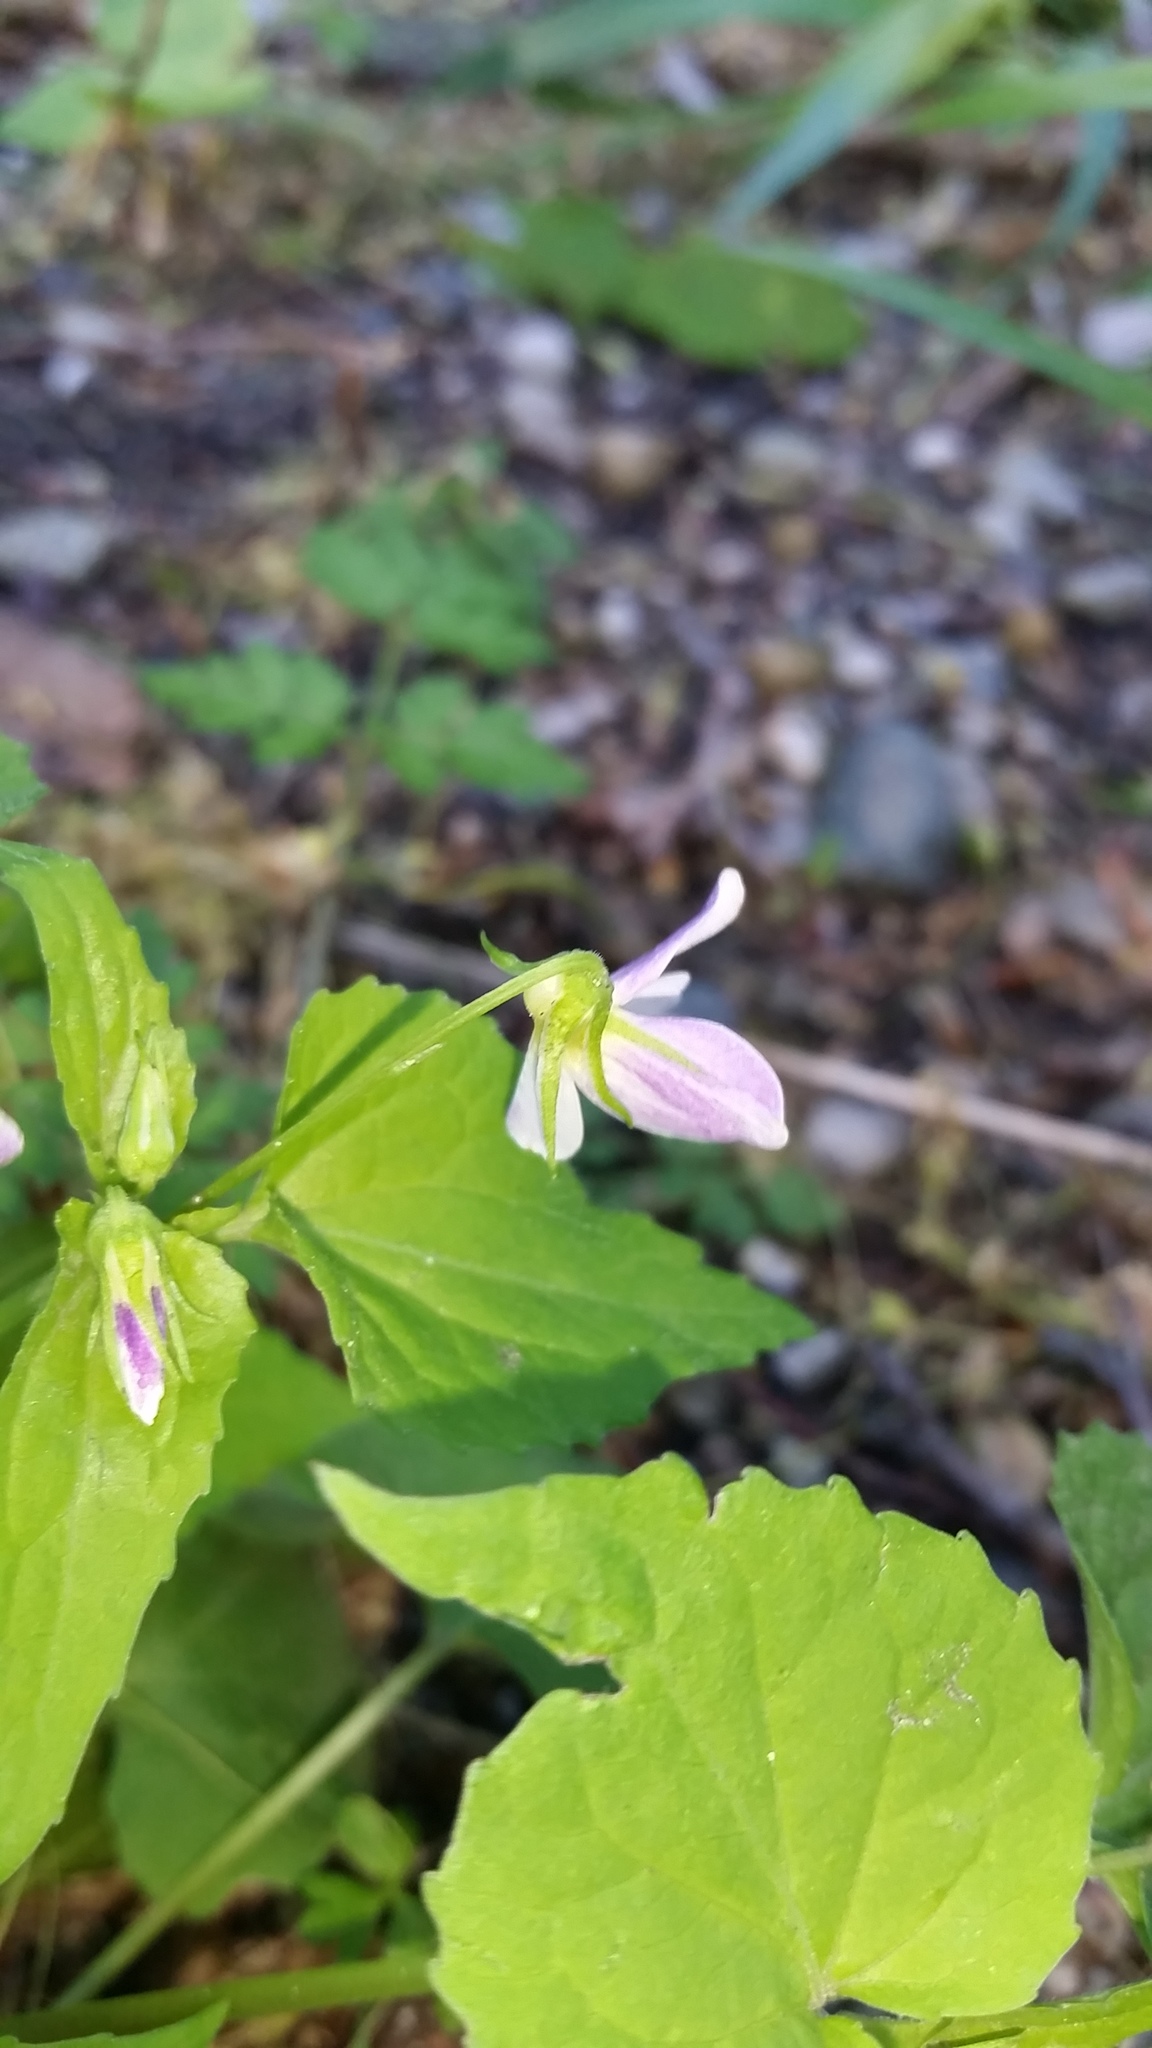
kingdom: Plantae
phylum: Tracheophyta
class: Magnoliopsida
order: Malpighiales
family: Violaceae
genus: Viola
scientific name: Viola canadensis
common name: Canada violet
